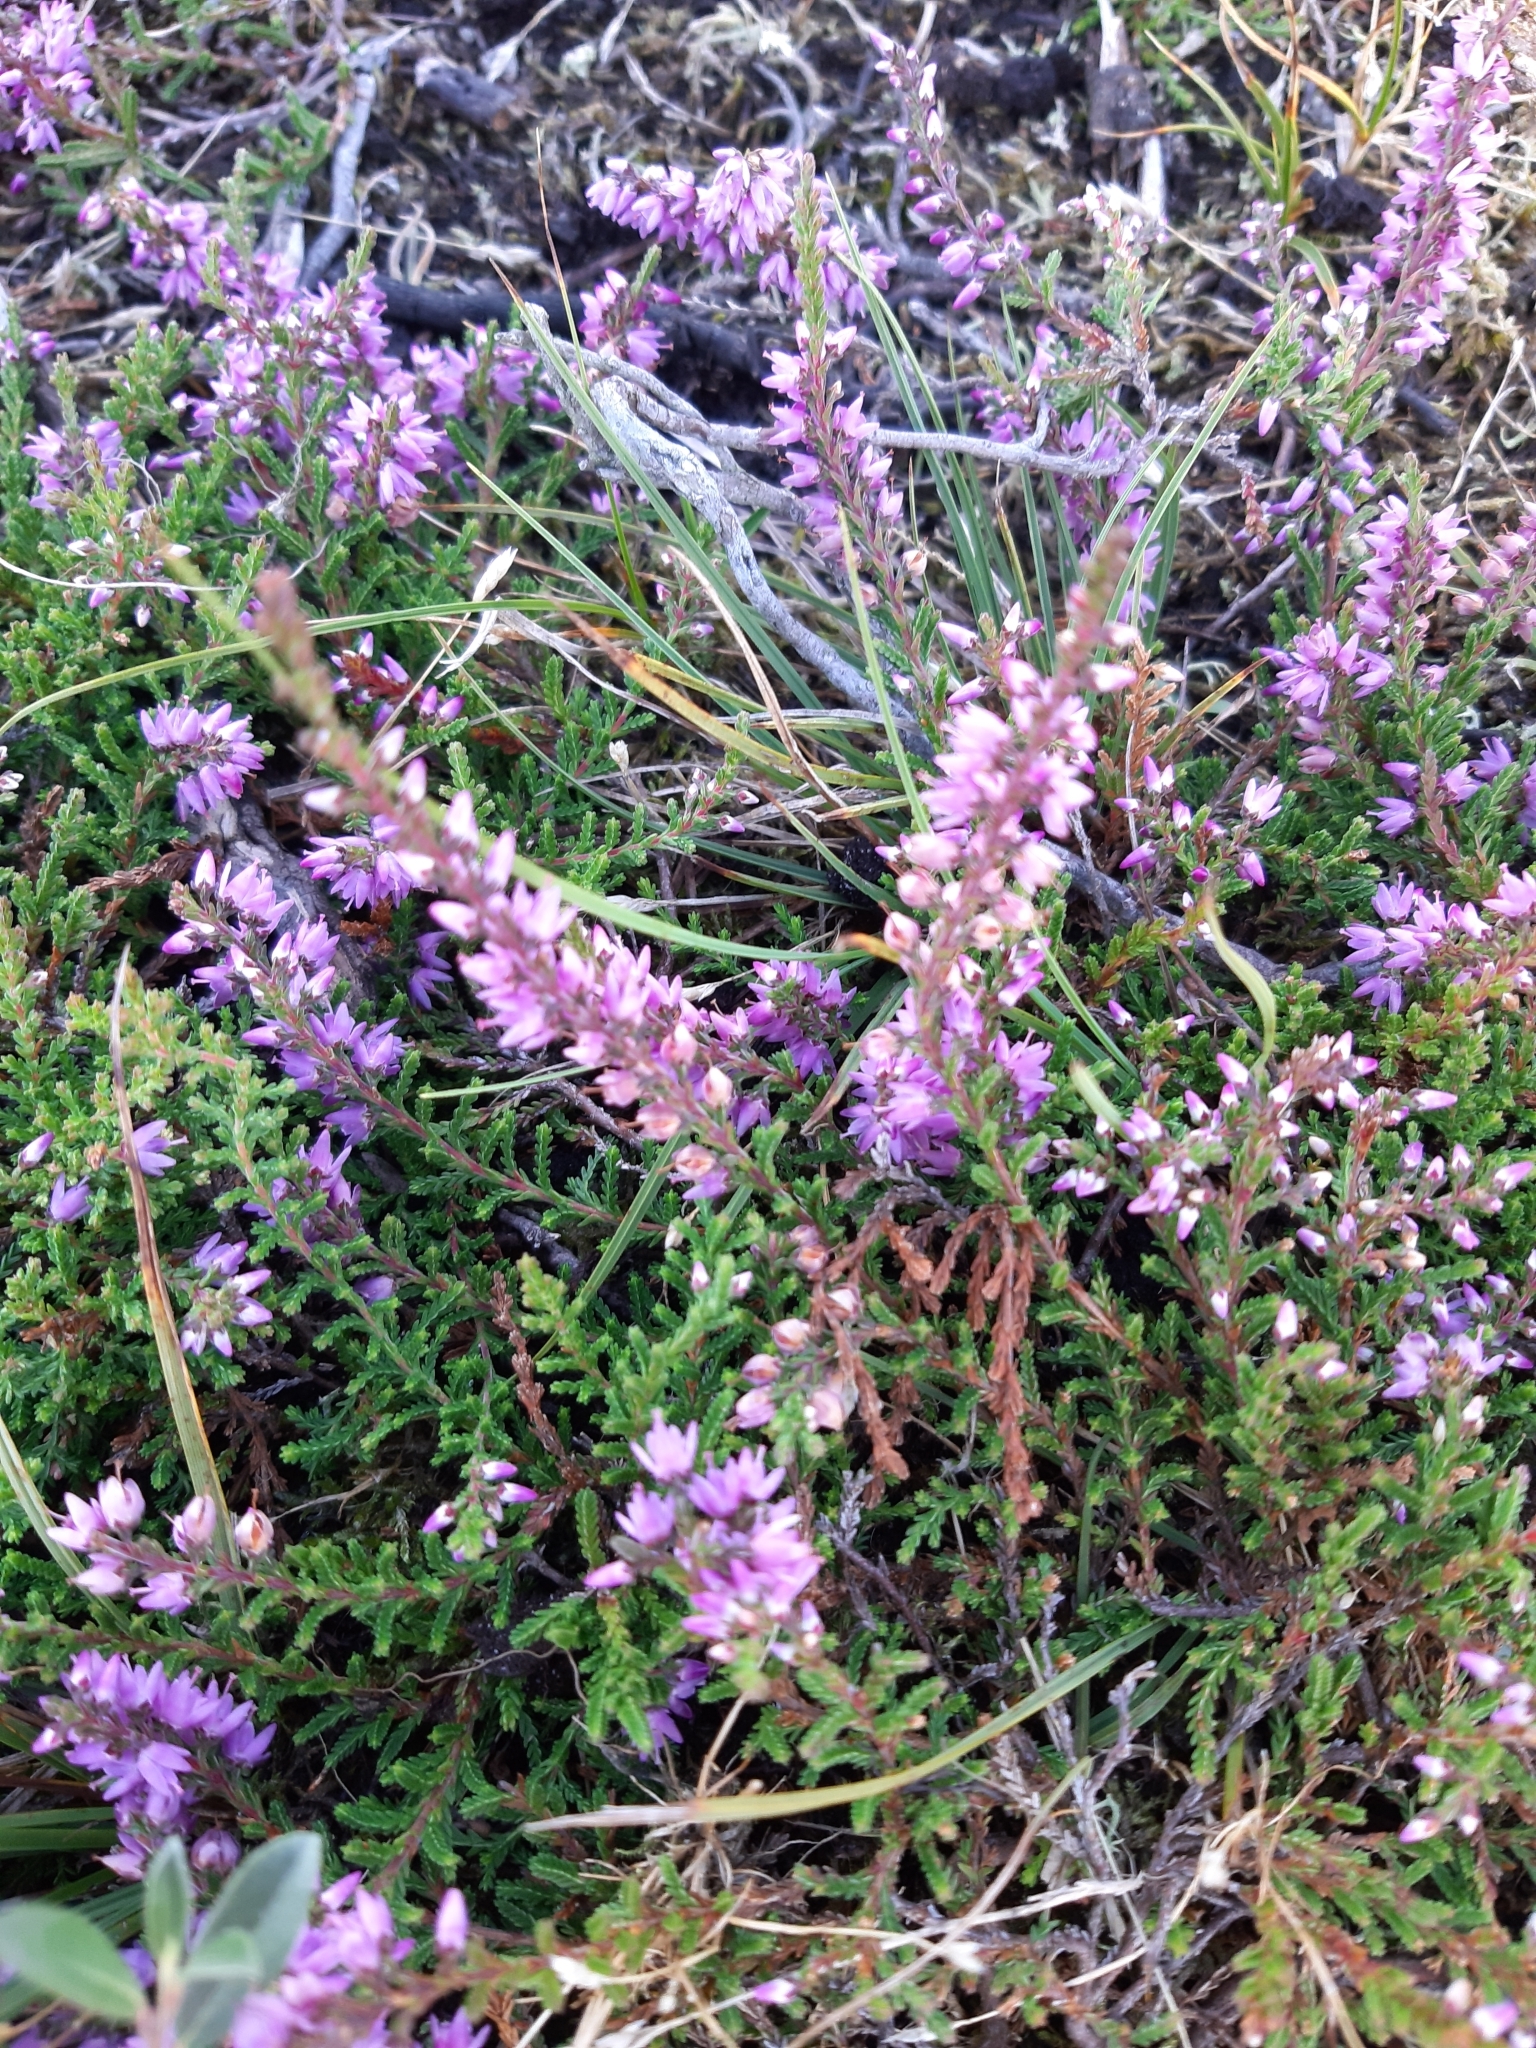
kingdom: Plantae
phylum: Tracheophyta
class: Magnoliopsida
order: Ericales
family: Ericaceae
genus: Calluna
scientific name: Calluna vulgaris
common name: Heather
